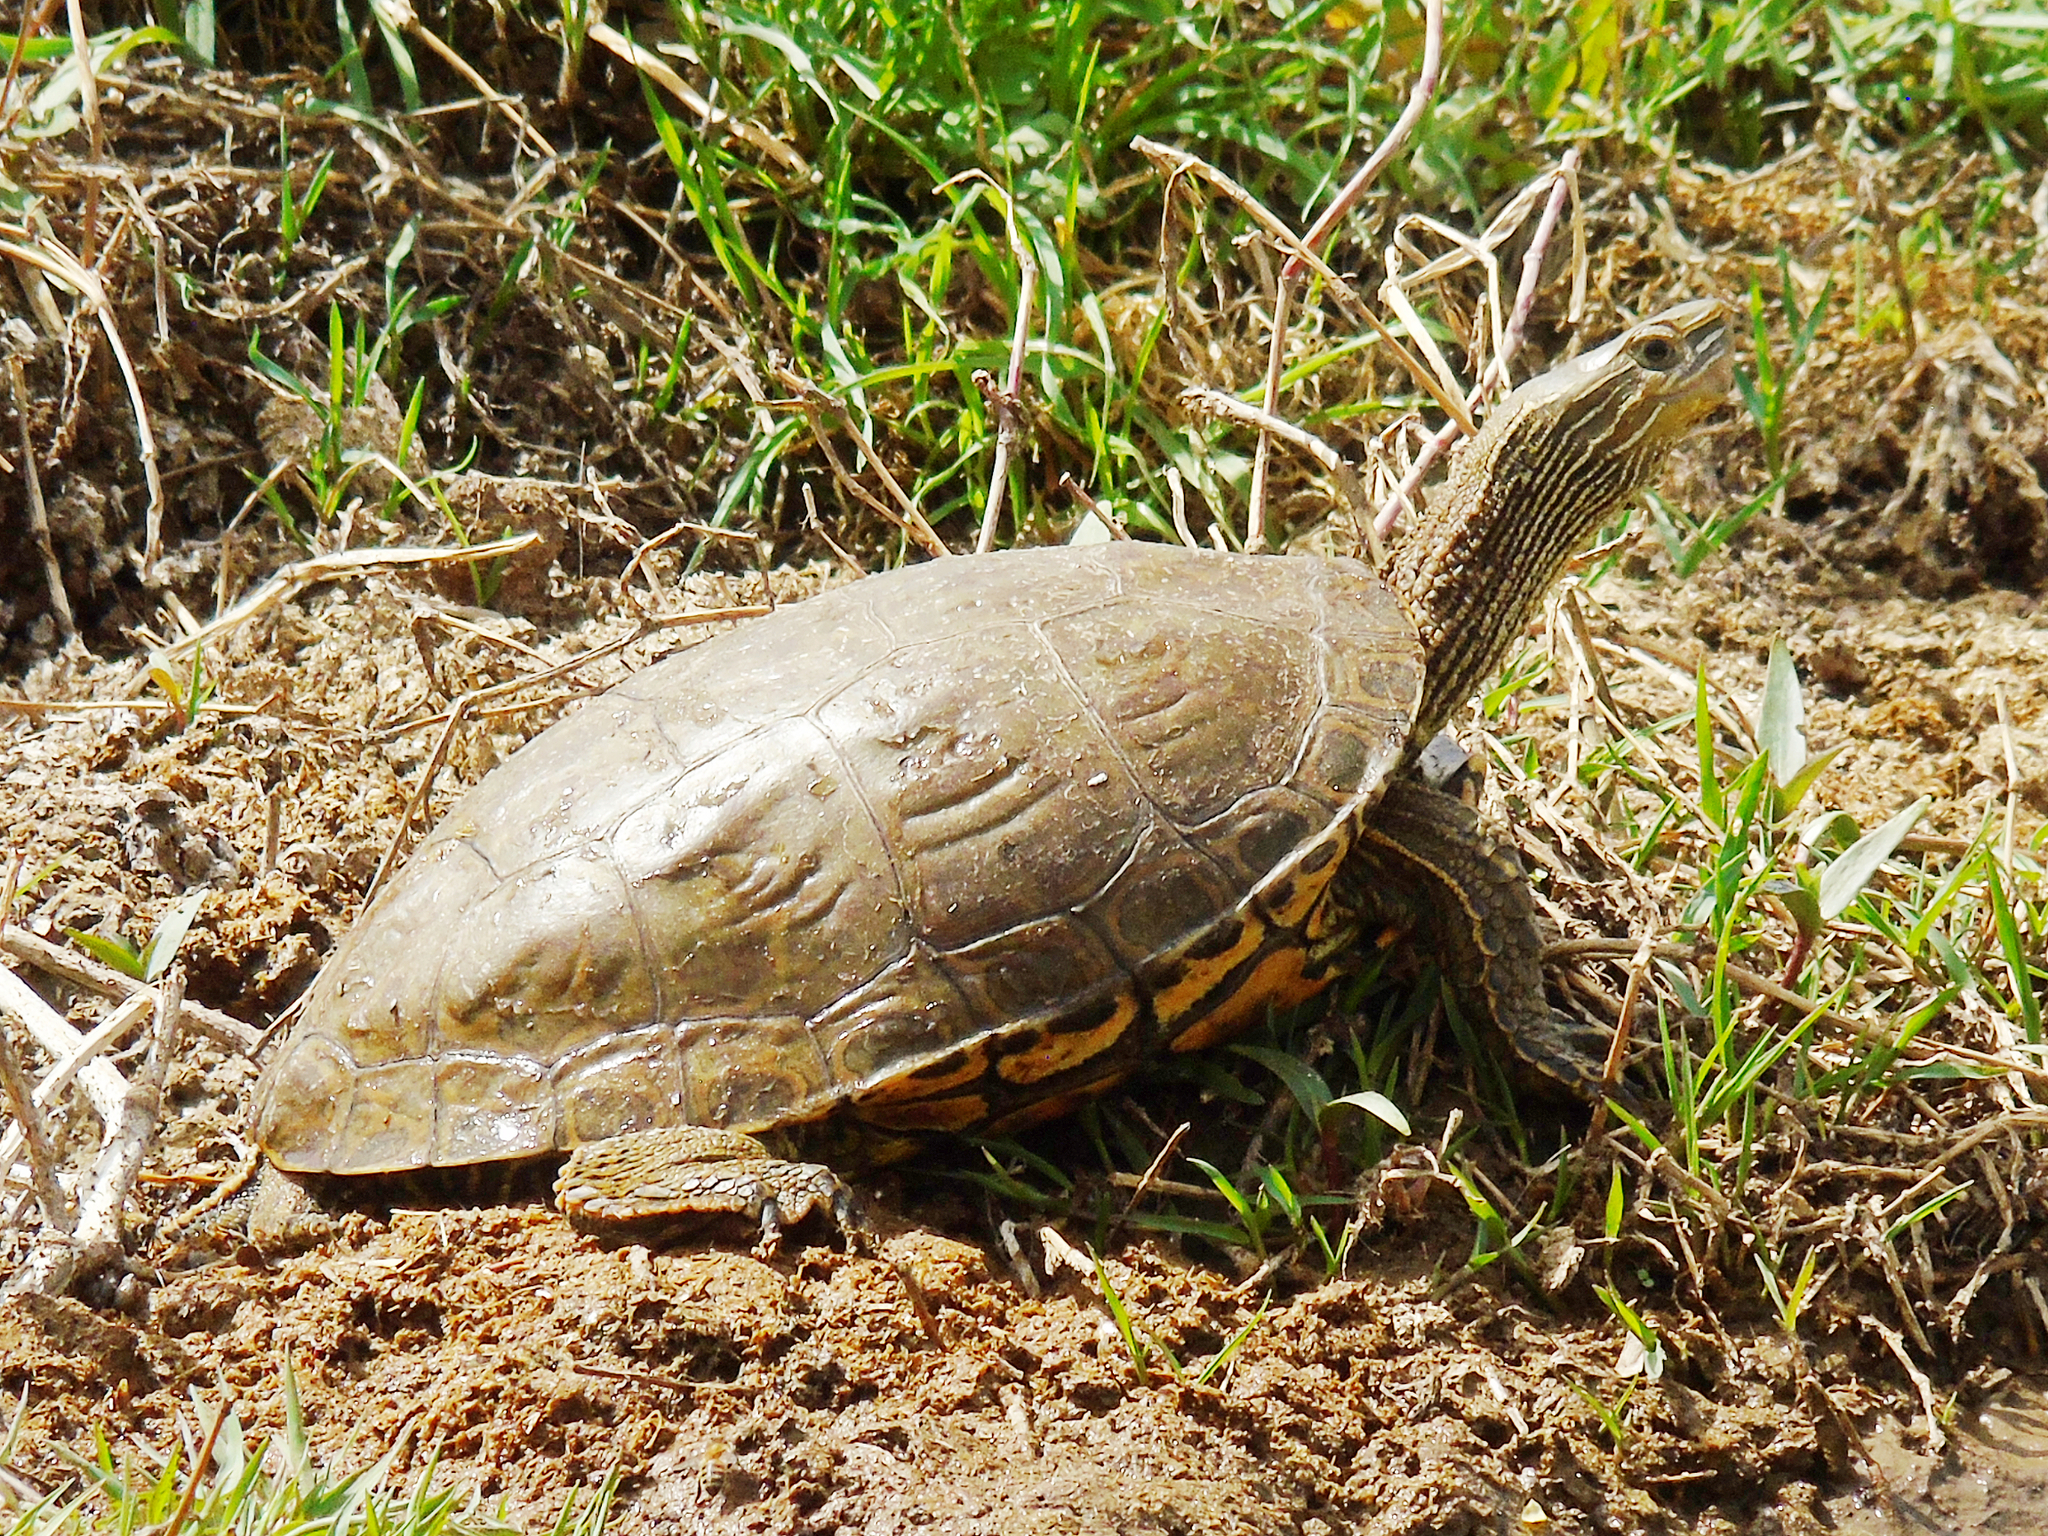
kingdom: Animalia
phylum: Chordata
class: Testudines
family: Geoemydidae
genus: Mauremys
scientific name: Mauremys caspica
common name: Caspian turtle
